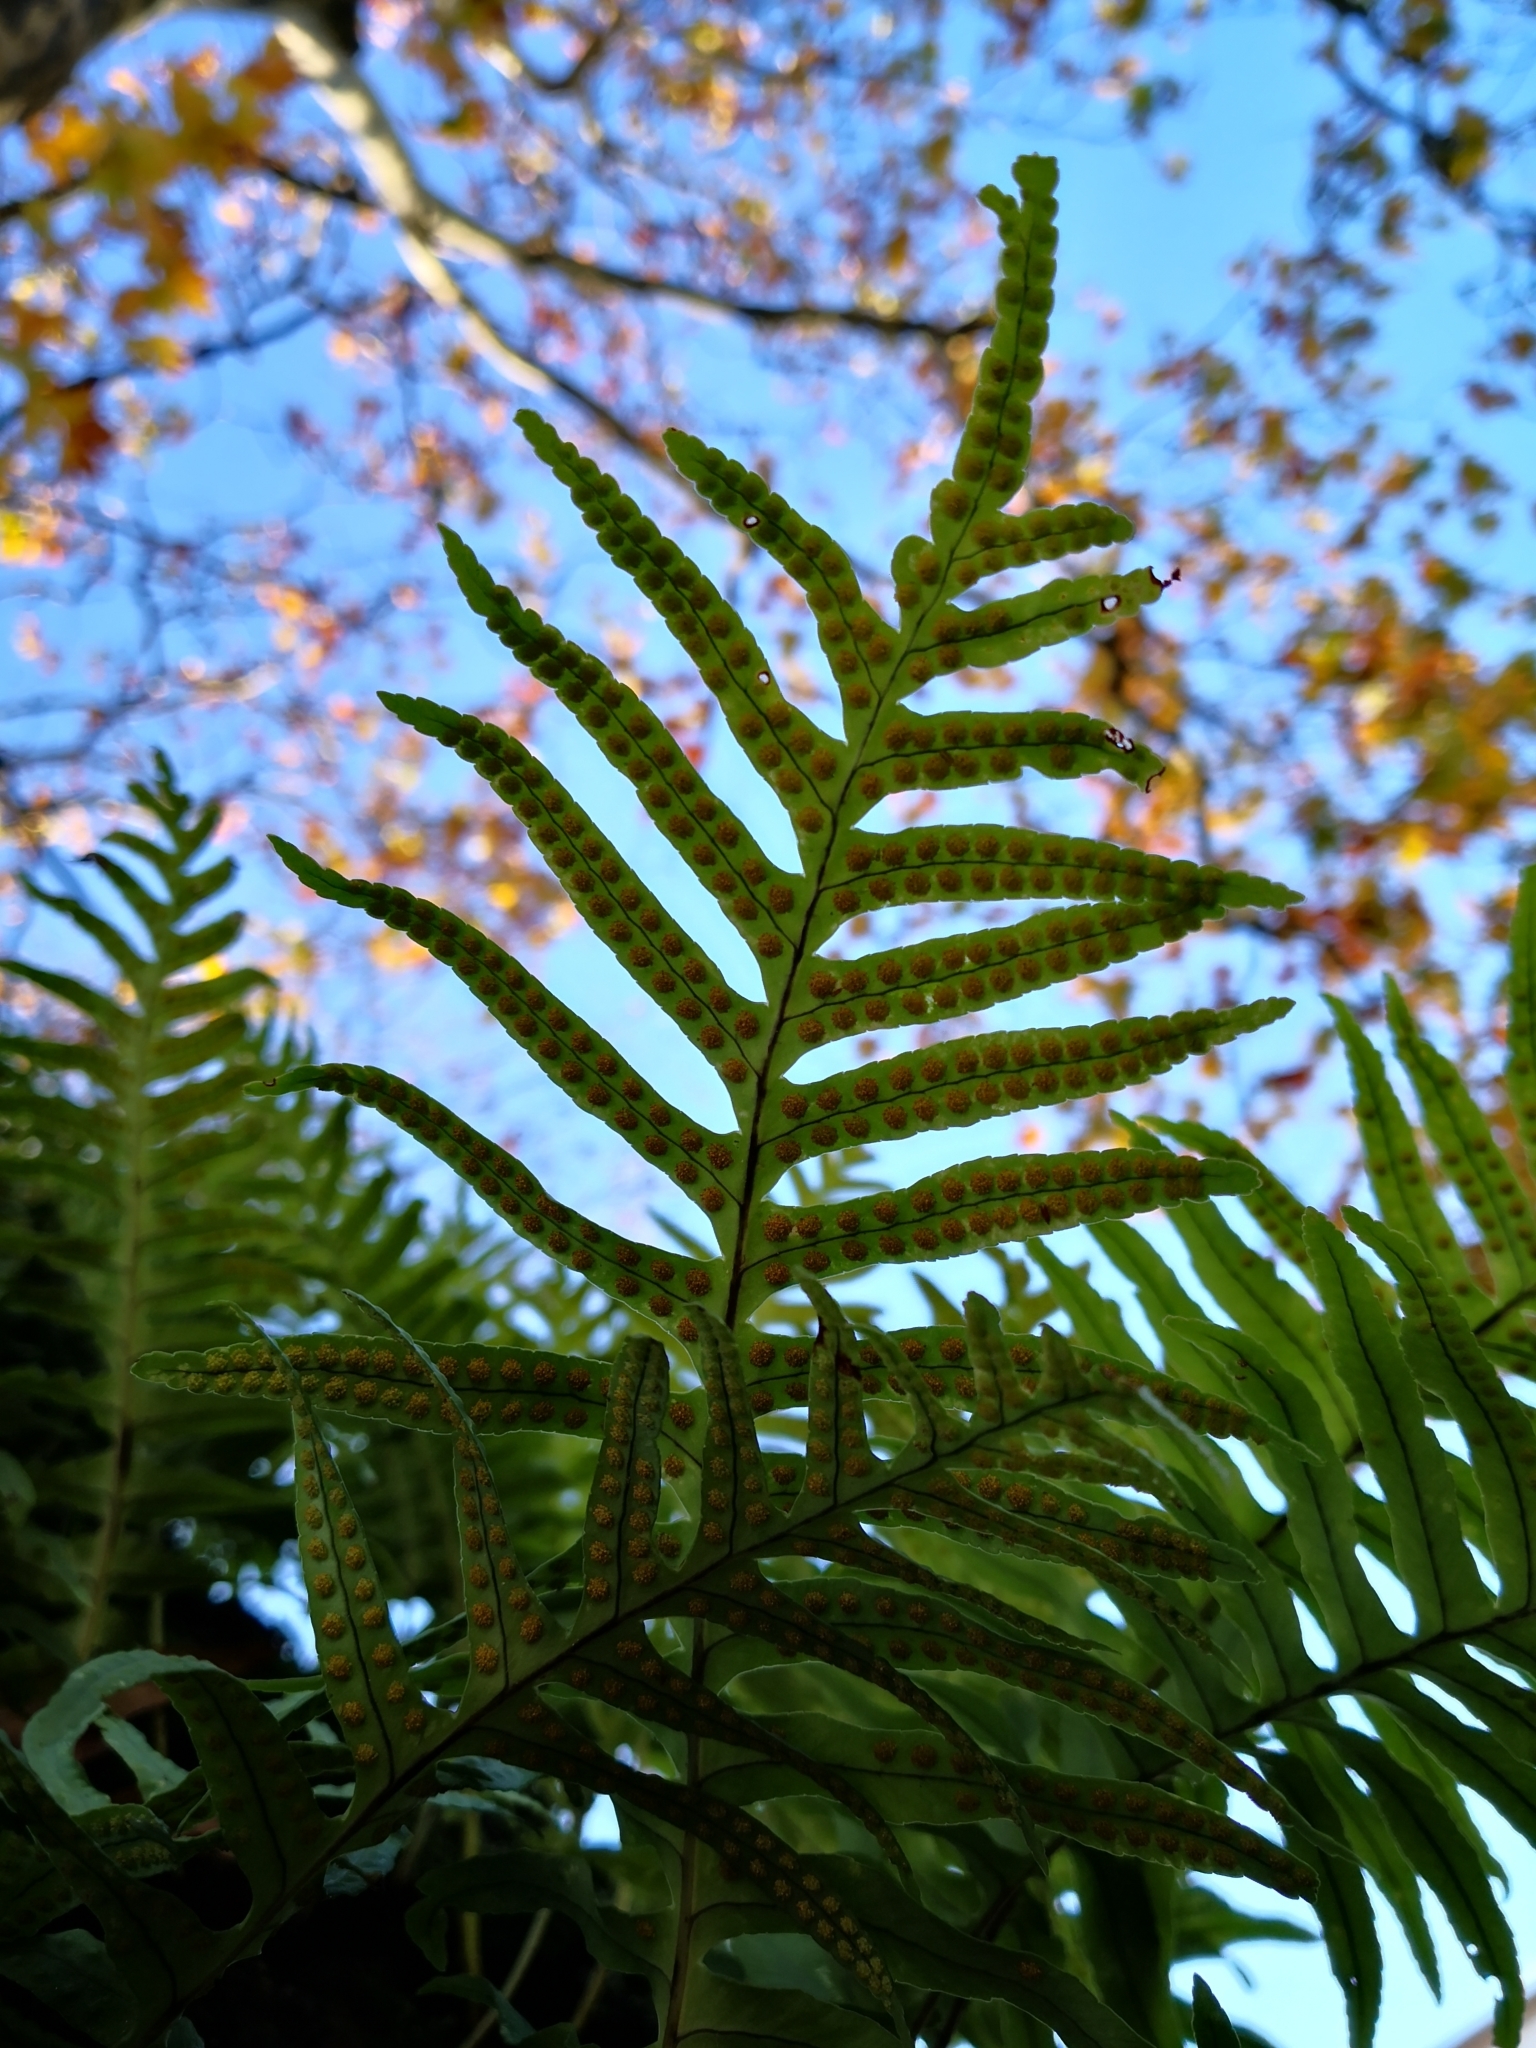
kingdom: Plantae
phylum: Tracheophyta
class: Polypodiopsida
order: Polypodiales
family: Polypodiaceae
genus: Polypodium
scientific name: Polypodium cambricum
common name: Southern polypody
